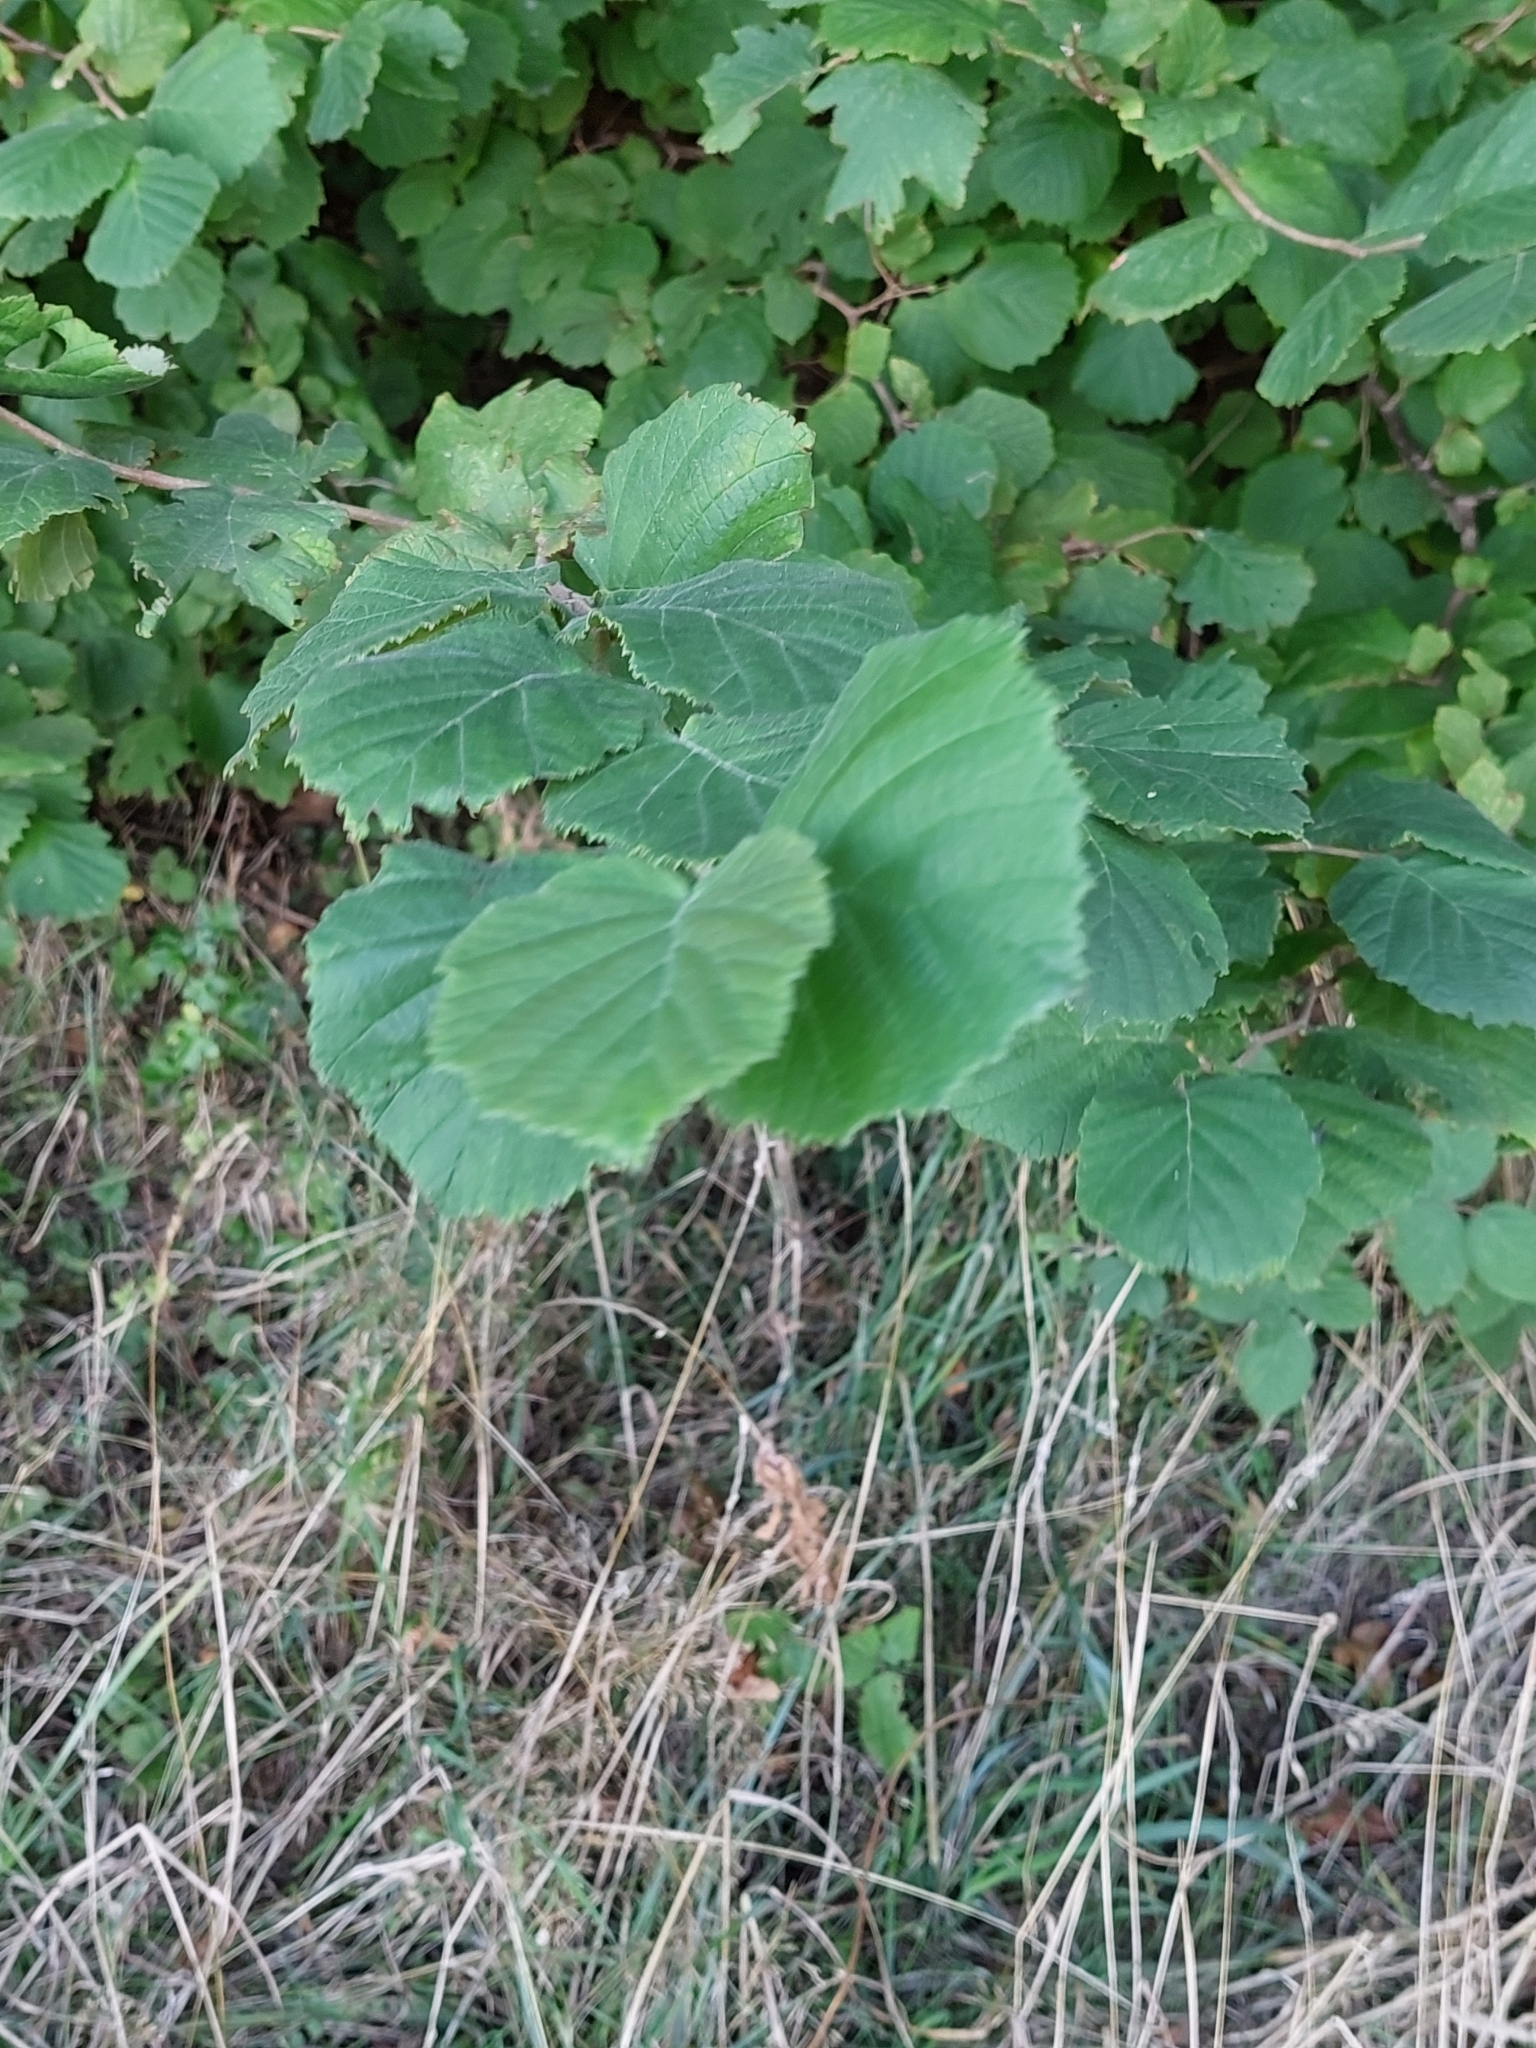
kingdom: Plantae
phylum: Tracheophyta
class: Magnoliopsida
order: Fagales
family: Betulaceae
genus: Corylus
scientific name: Corylus avellana
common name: European hazel
